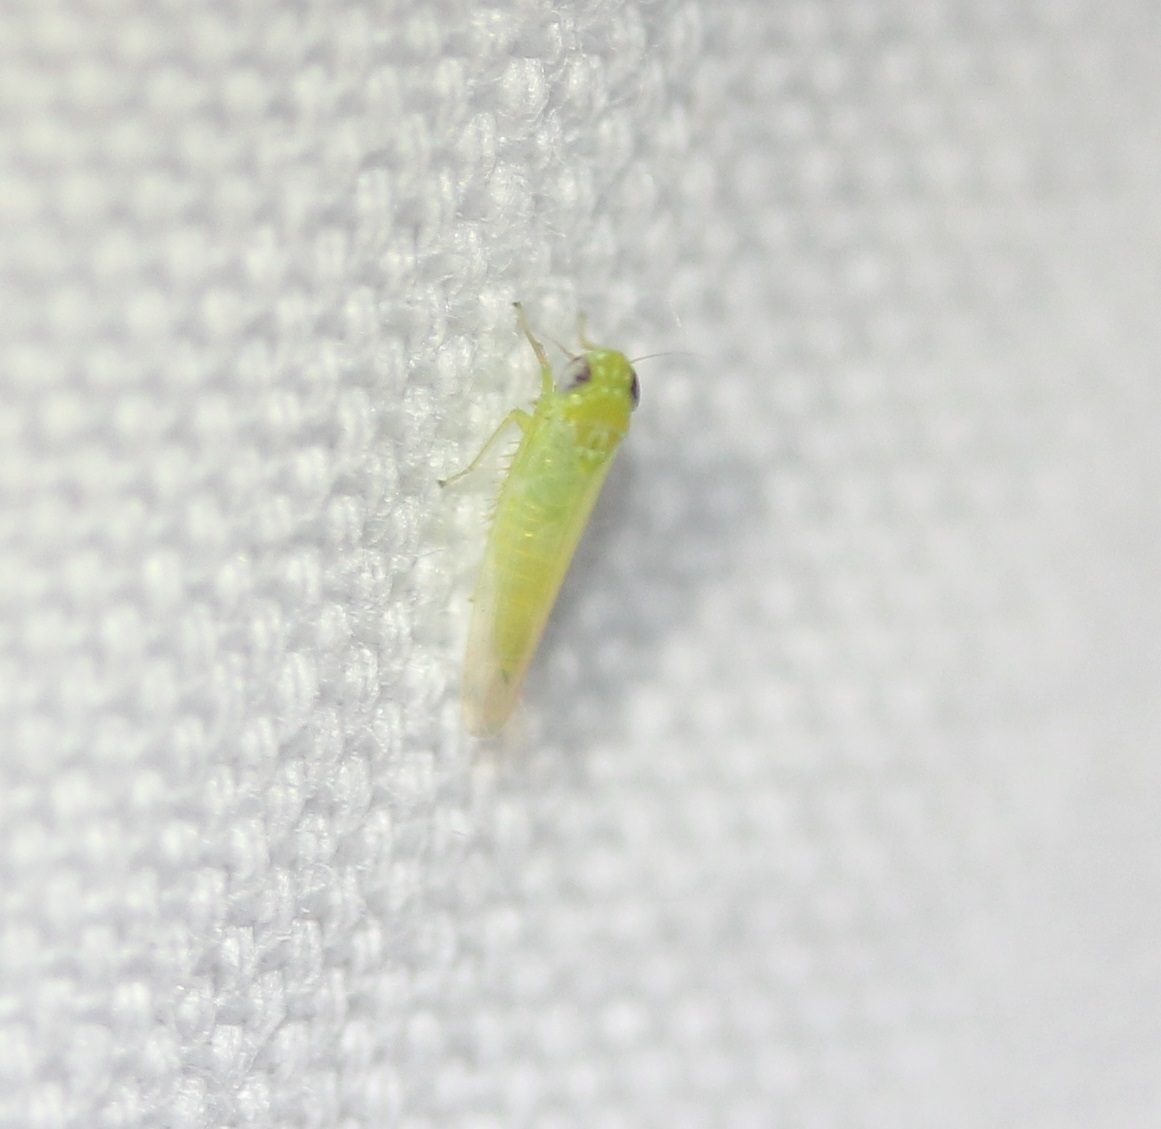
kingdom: Animalia
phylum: Arthropoda
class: Insecta
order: Hemiptera
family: Cicadellidae
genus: Empoasca
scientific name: Empoasca fabae
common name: Potato leafhopper
